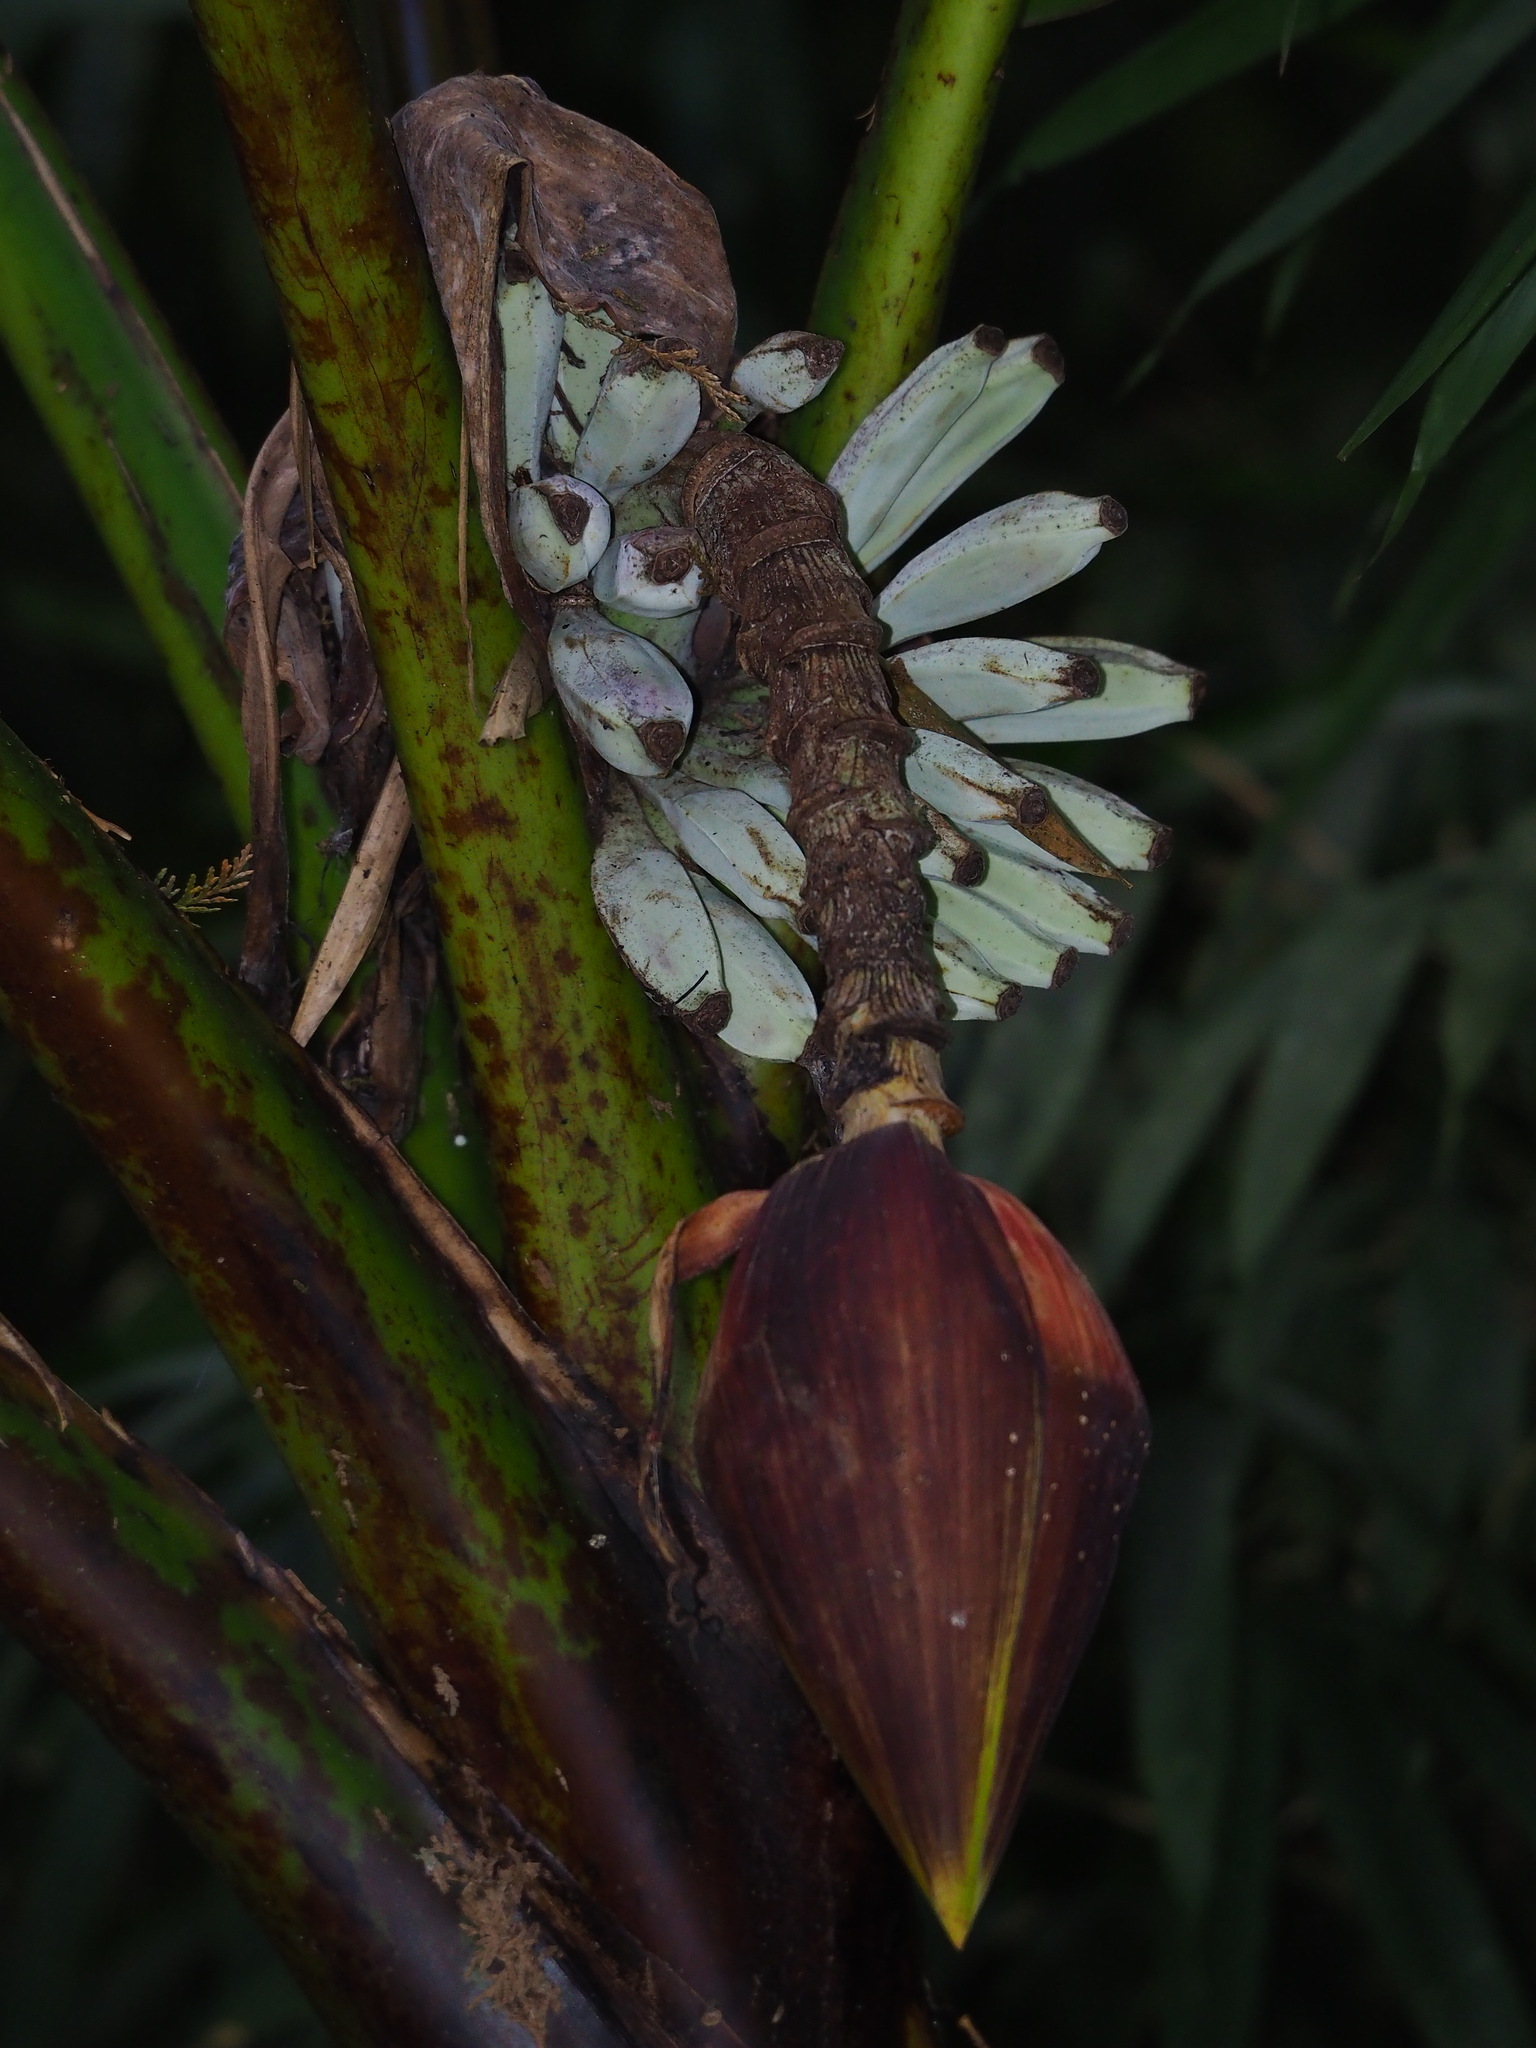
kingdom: Plantae
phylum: Tracheophyta
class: Liliopsida
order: Zingiberales
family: Musaceae
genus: Musa
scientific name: Musa itinerans
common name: Yunnan banana
